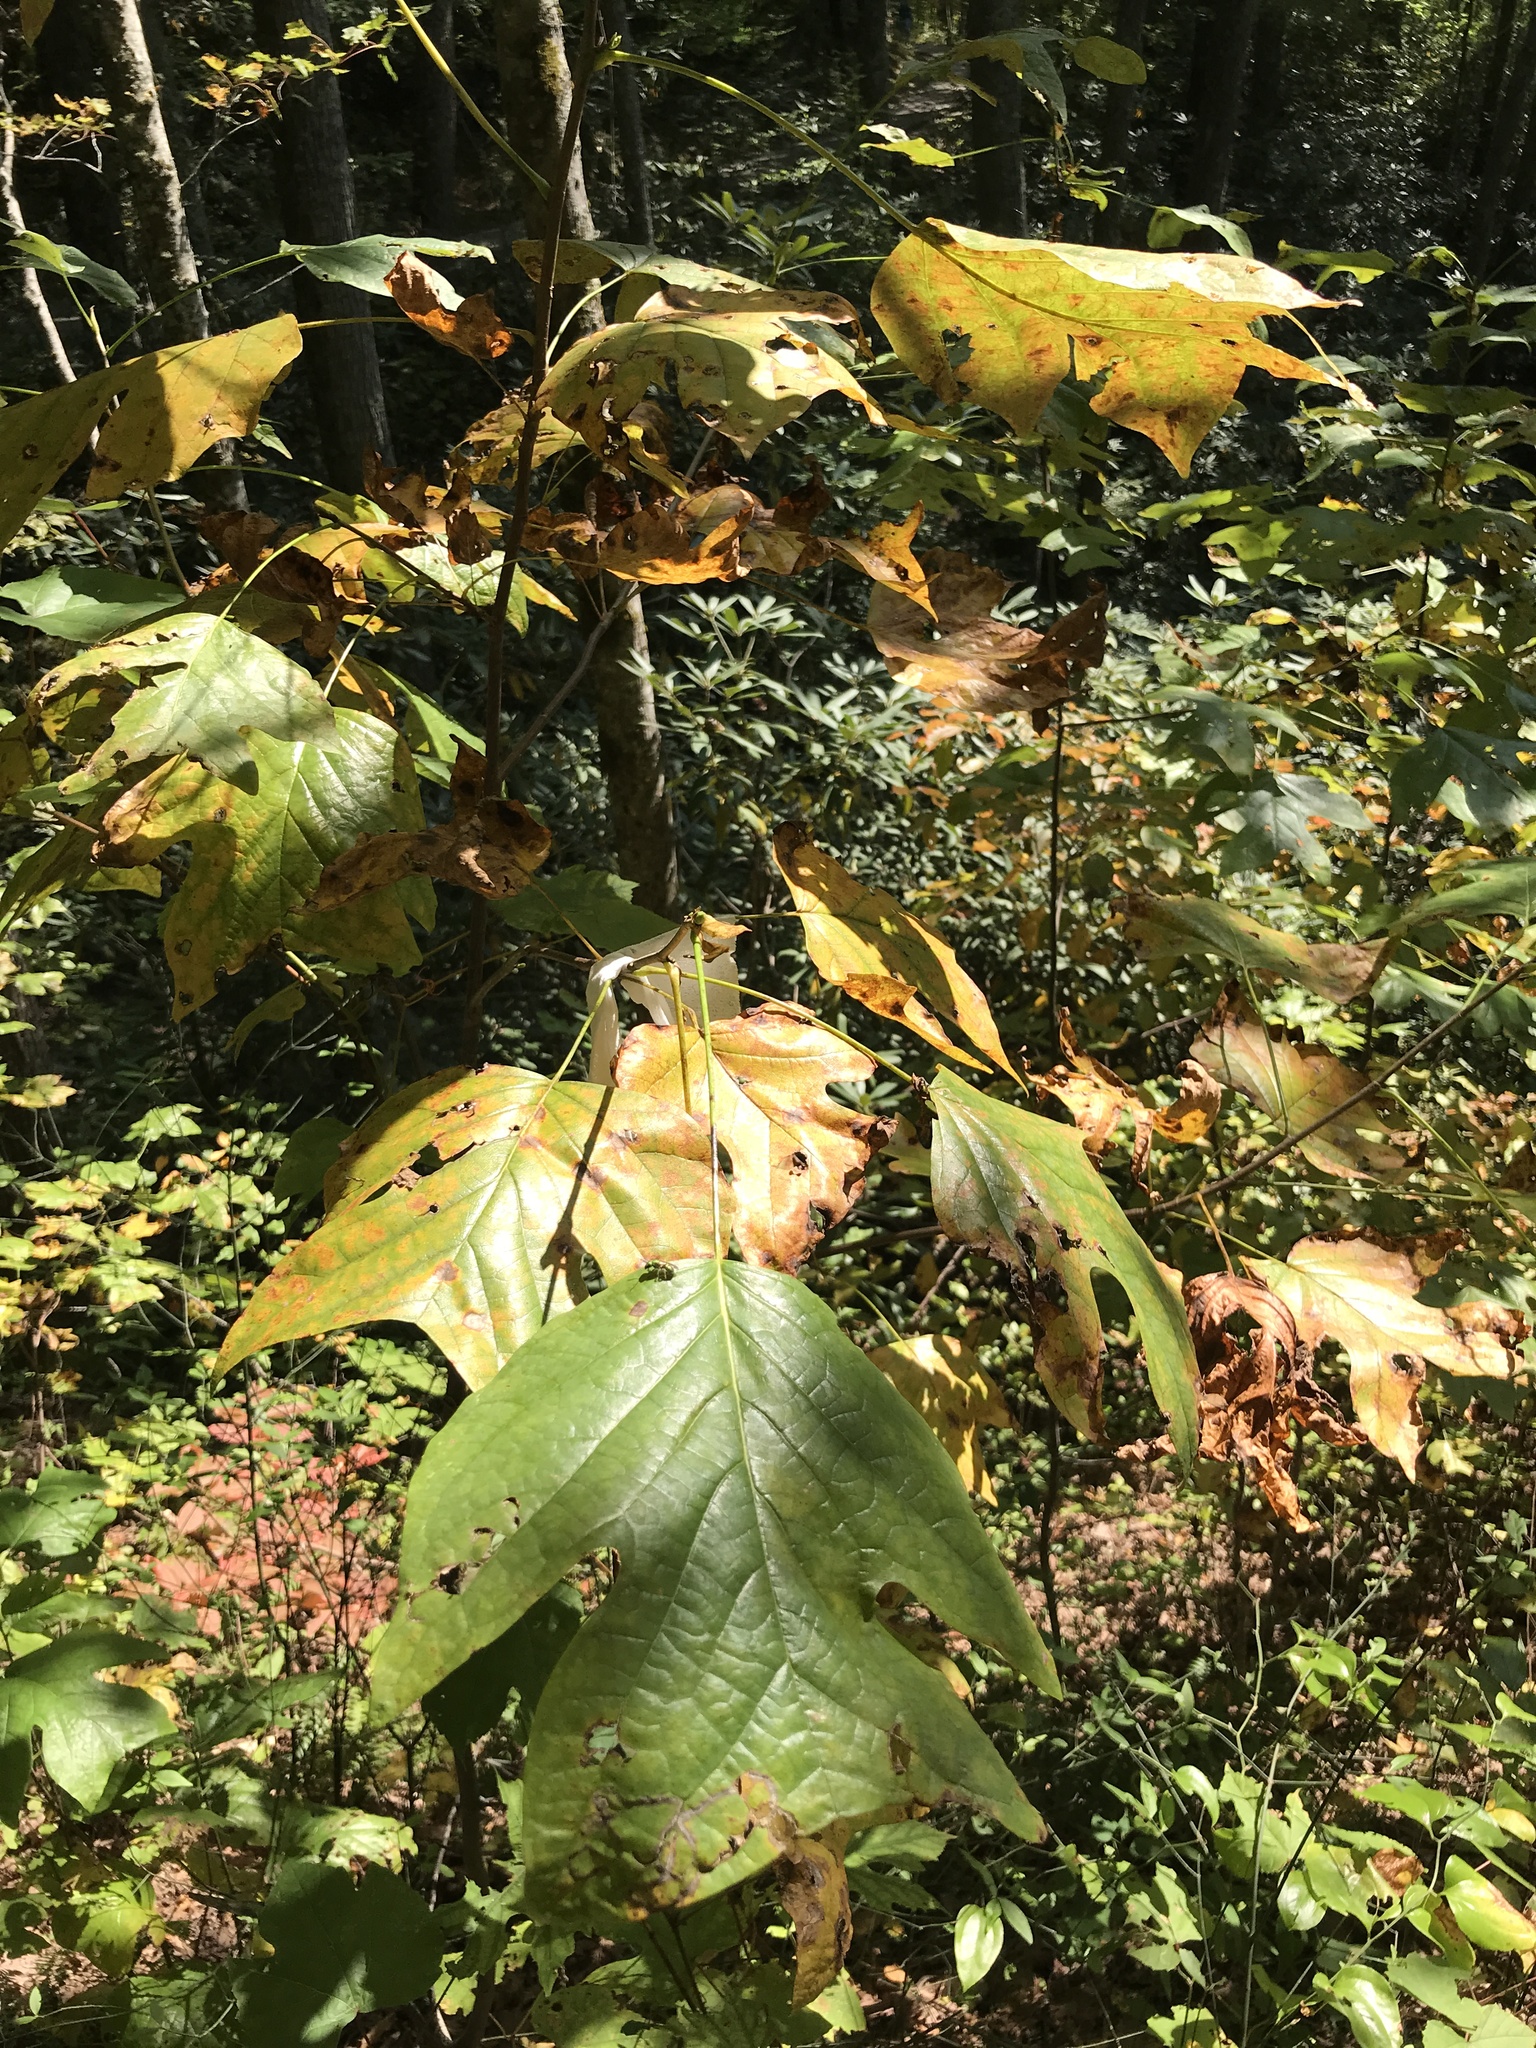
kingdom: Plantae
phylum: Tracheophyta
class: Magnoliopsida
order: Magnoliales
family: Magnoliaceae
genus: Liriodendron
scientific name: Liriodendron tulipifera
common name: Tulip tree
